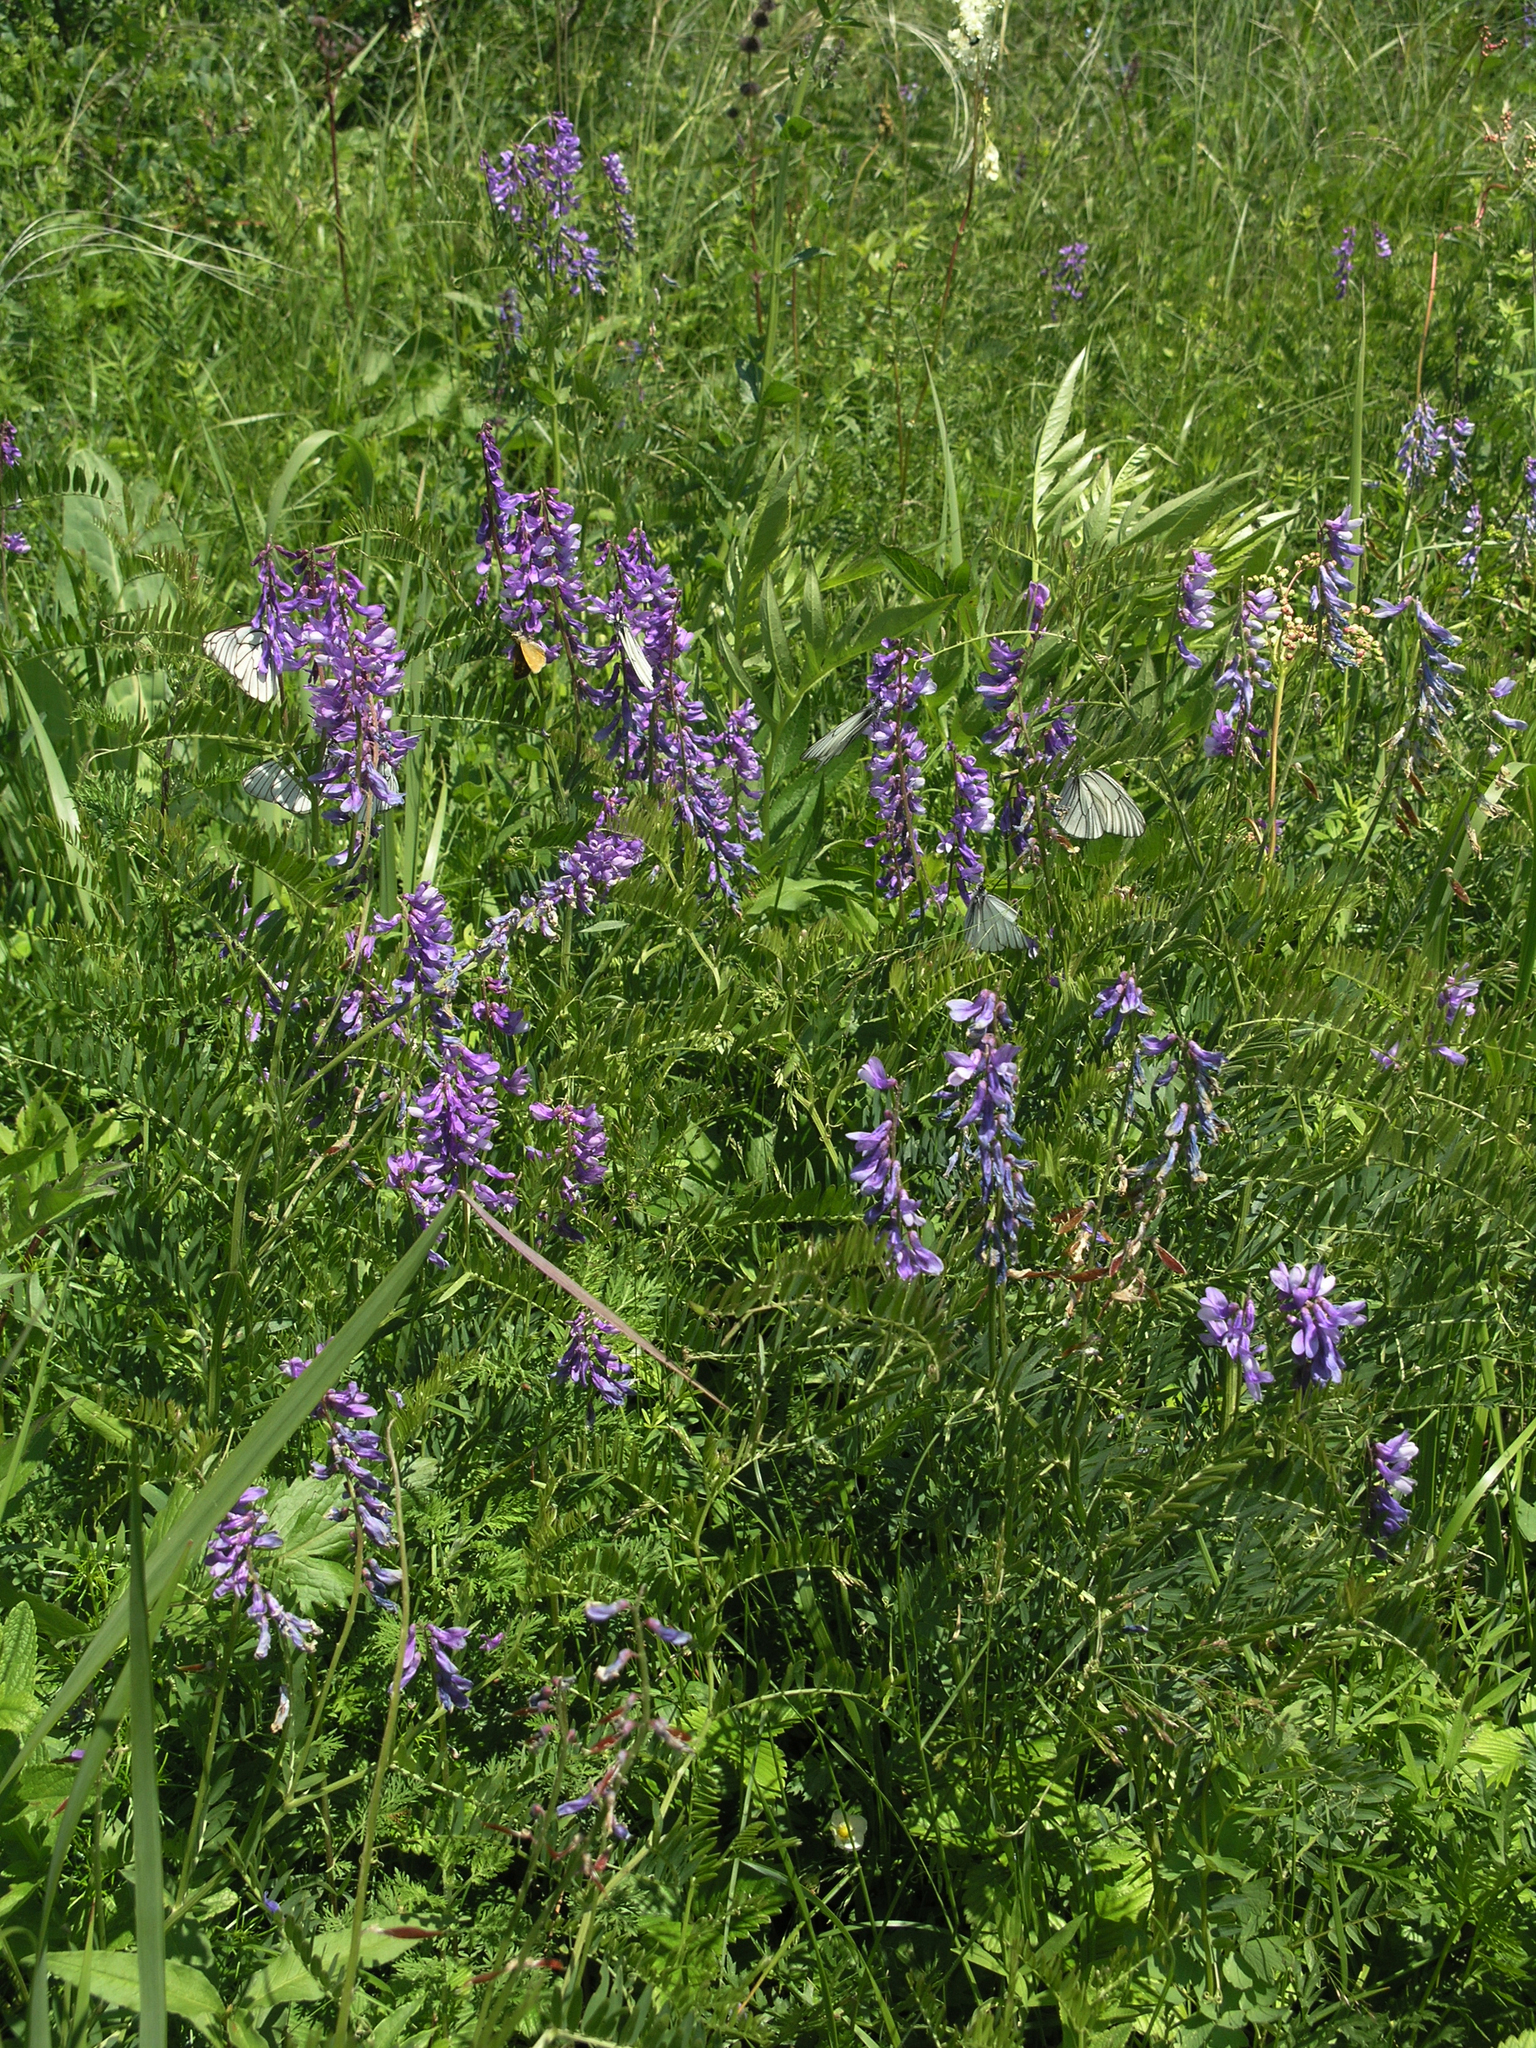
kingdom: Plantae
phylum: Tracheophyta
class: Magnoliopsida
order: Fabales
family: Fabaceae
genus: Vicia
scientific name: Vicia tenuifolia
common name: Fine-leaved vetch
